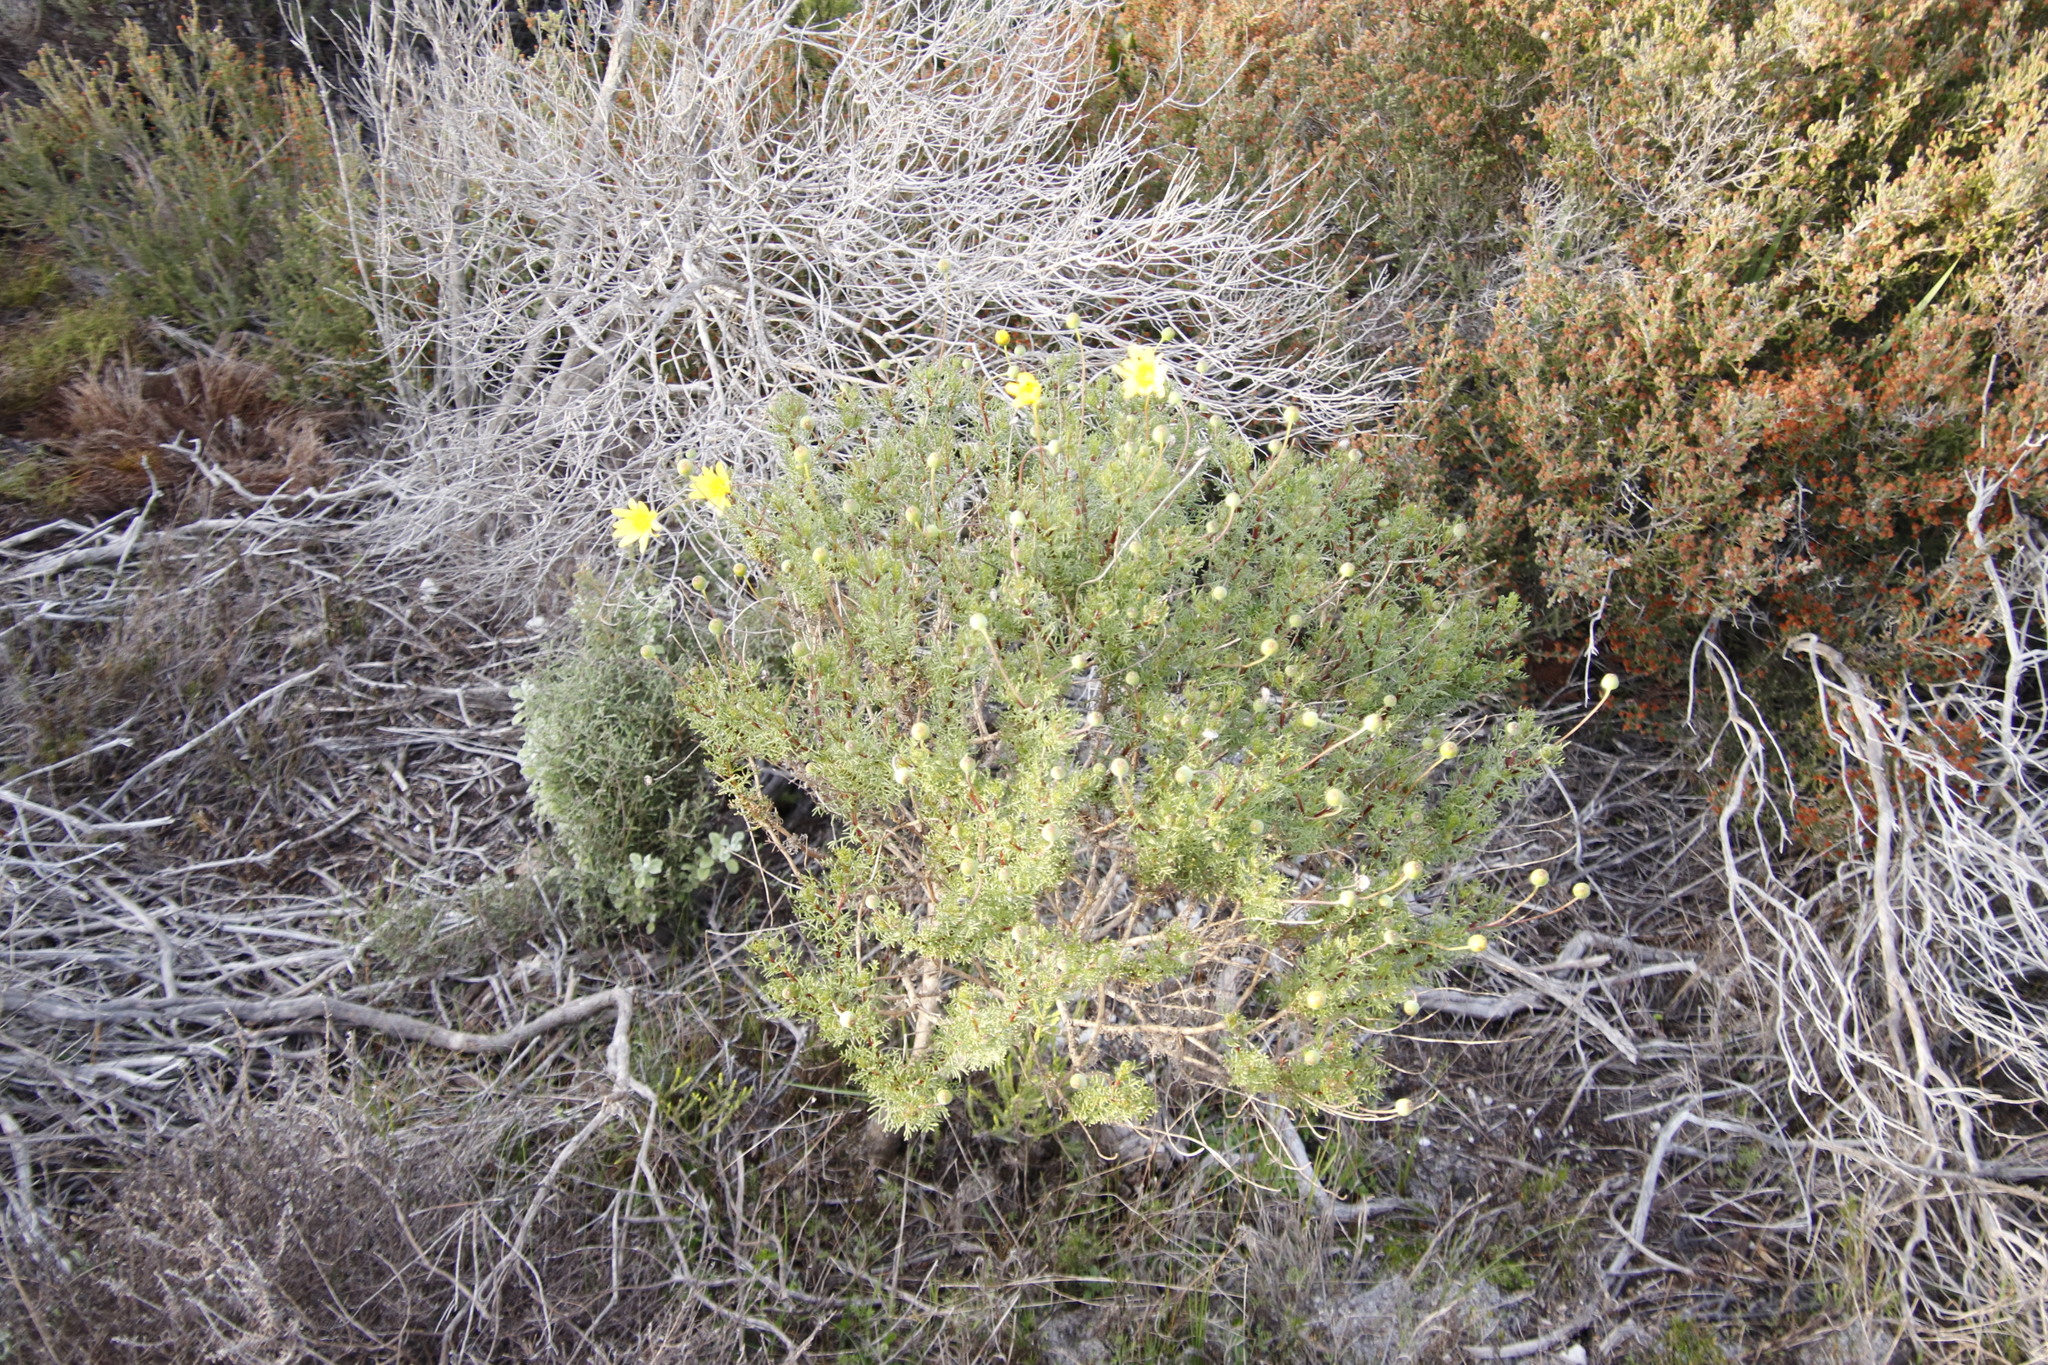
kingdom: Plantae
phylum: Tracheophyta
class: Magnoliopsida
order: Asterales
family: Asteraceae
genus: Euryops
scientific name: Euryops abrotanifolius
